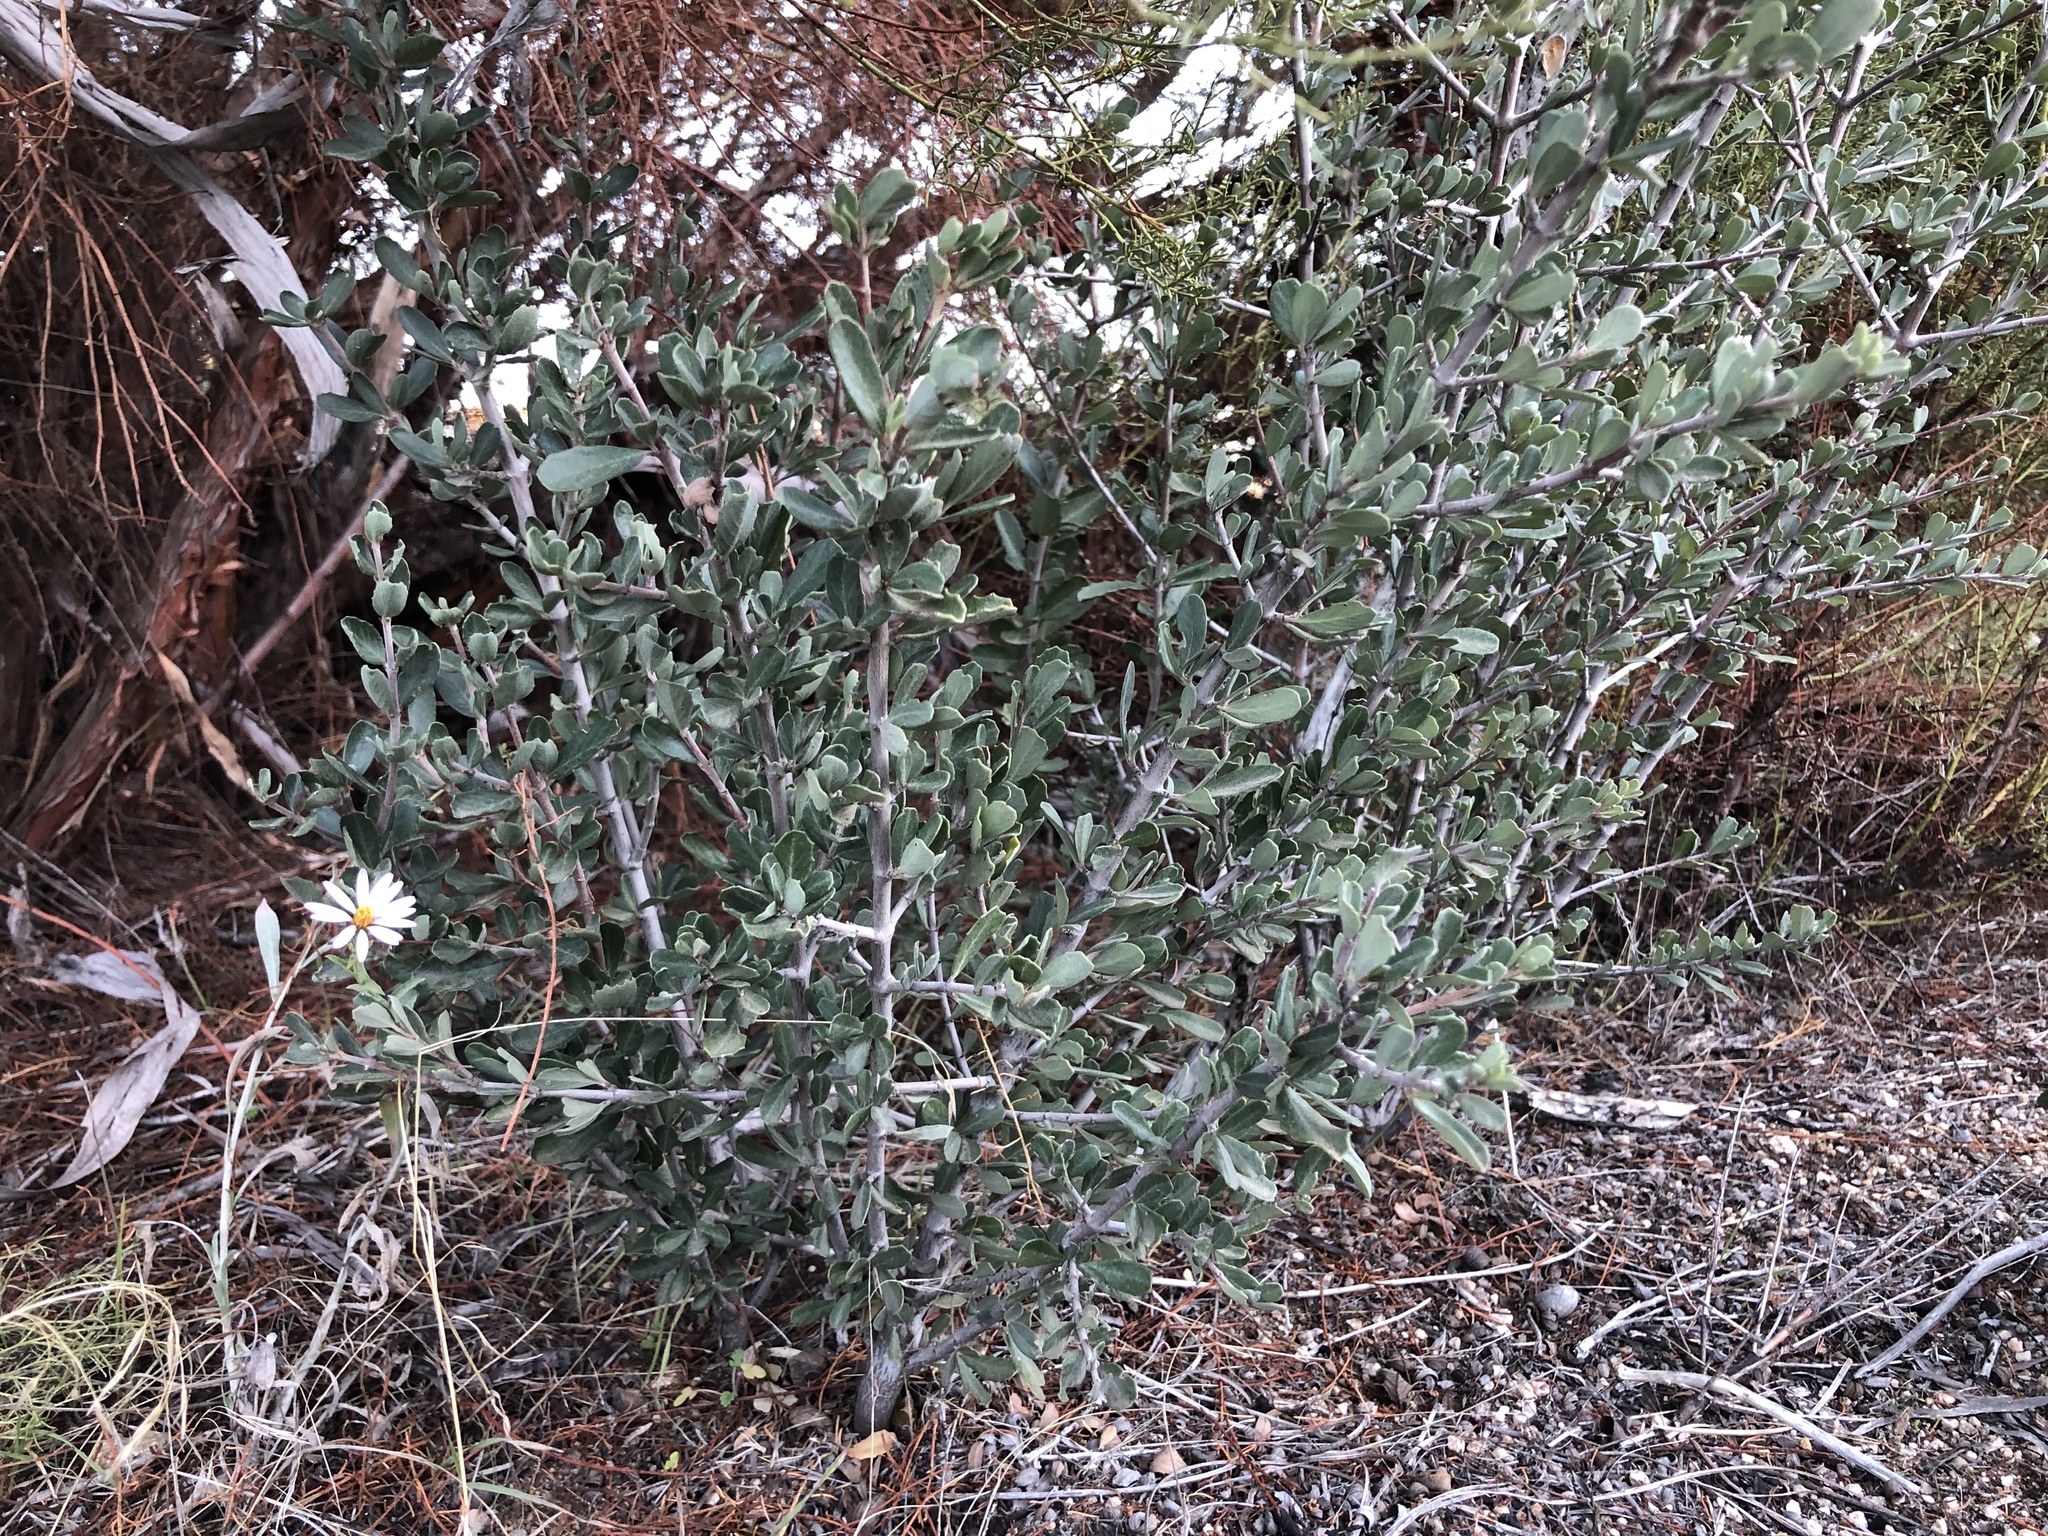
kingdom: Plantae
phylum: Tracheophyta
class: Magnoliopsida
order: Asterales
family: Asteraceae
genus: Corethrogyne
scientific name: Corethrogyne filaginifolia
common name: Sand-aster
